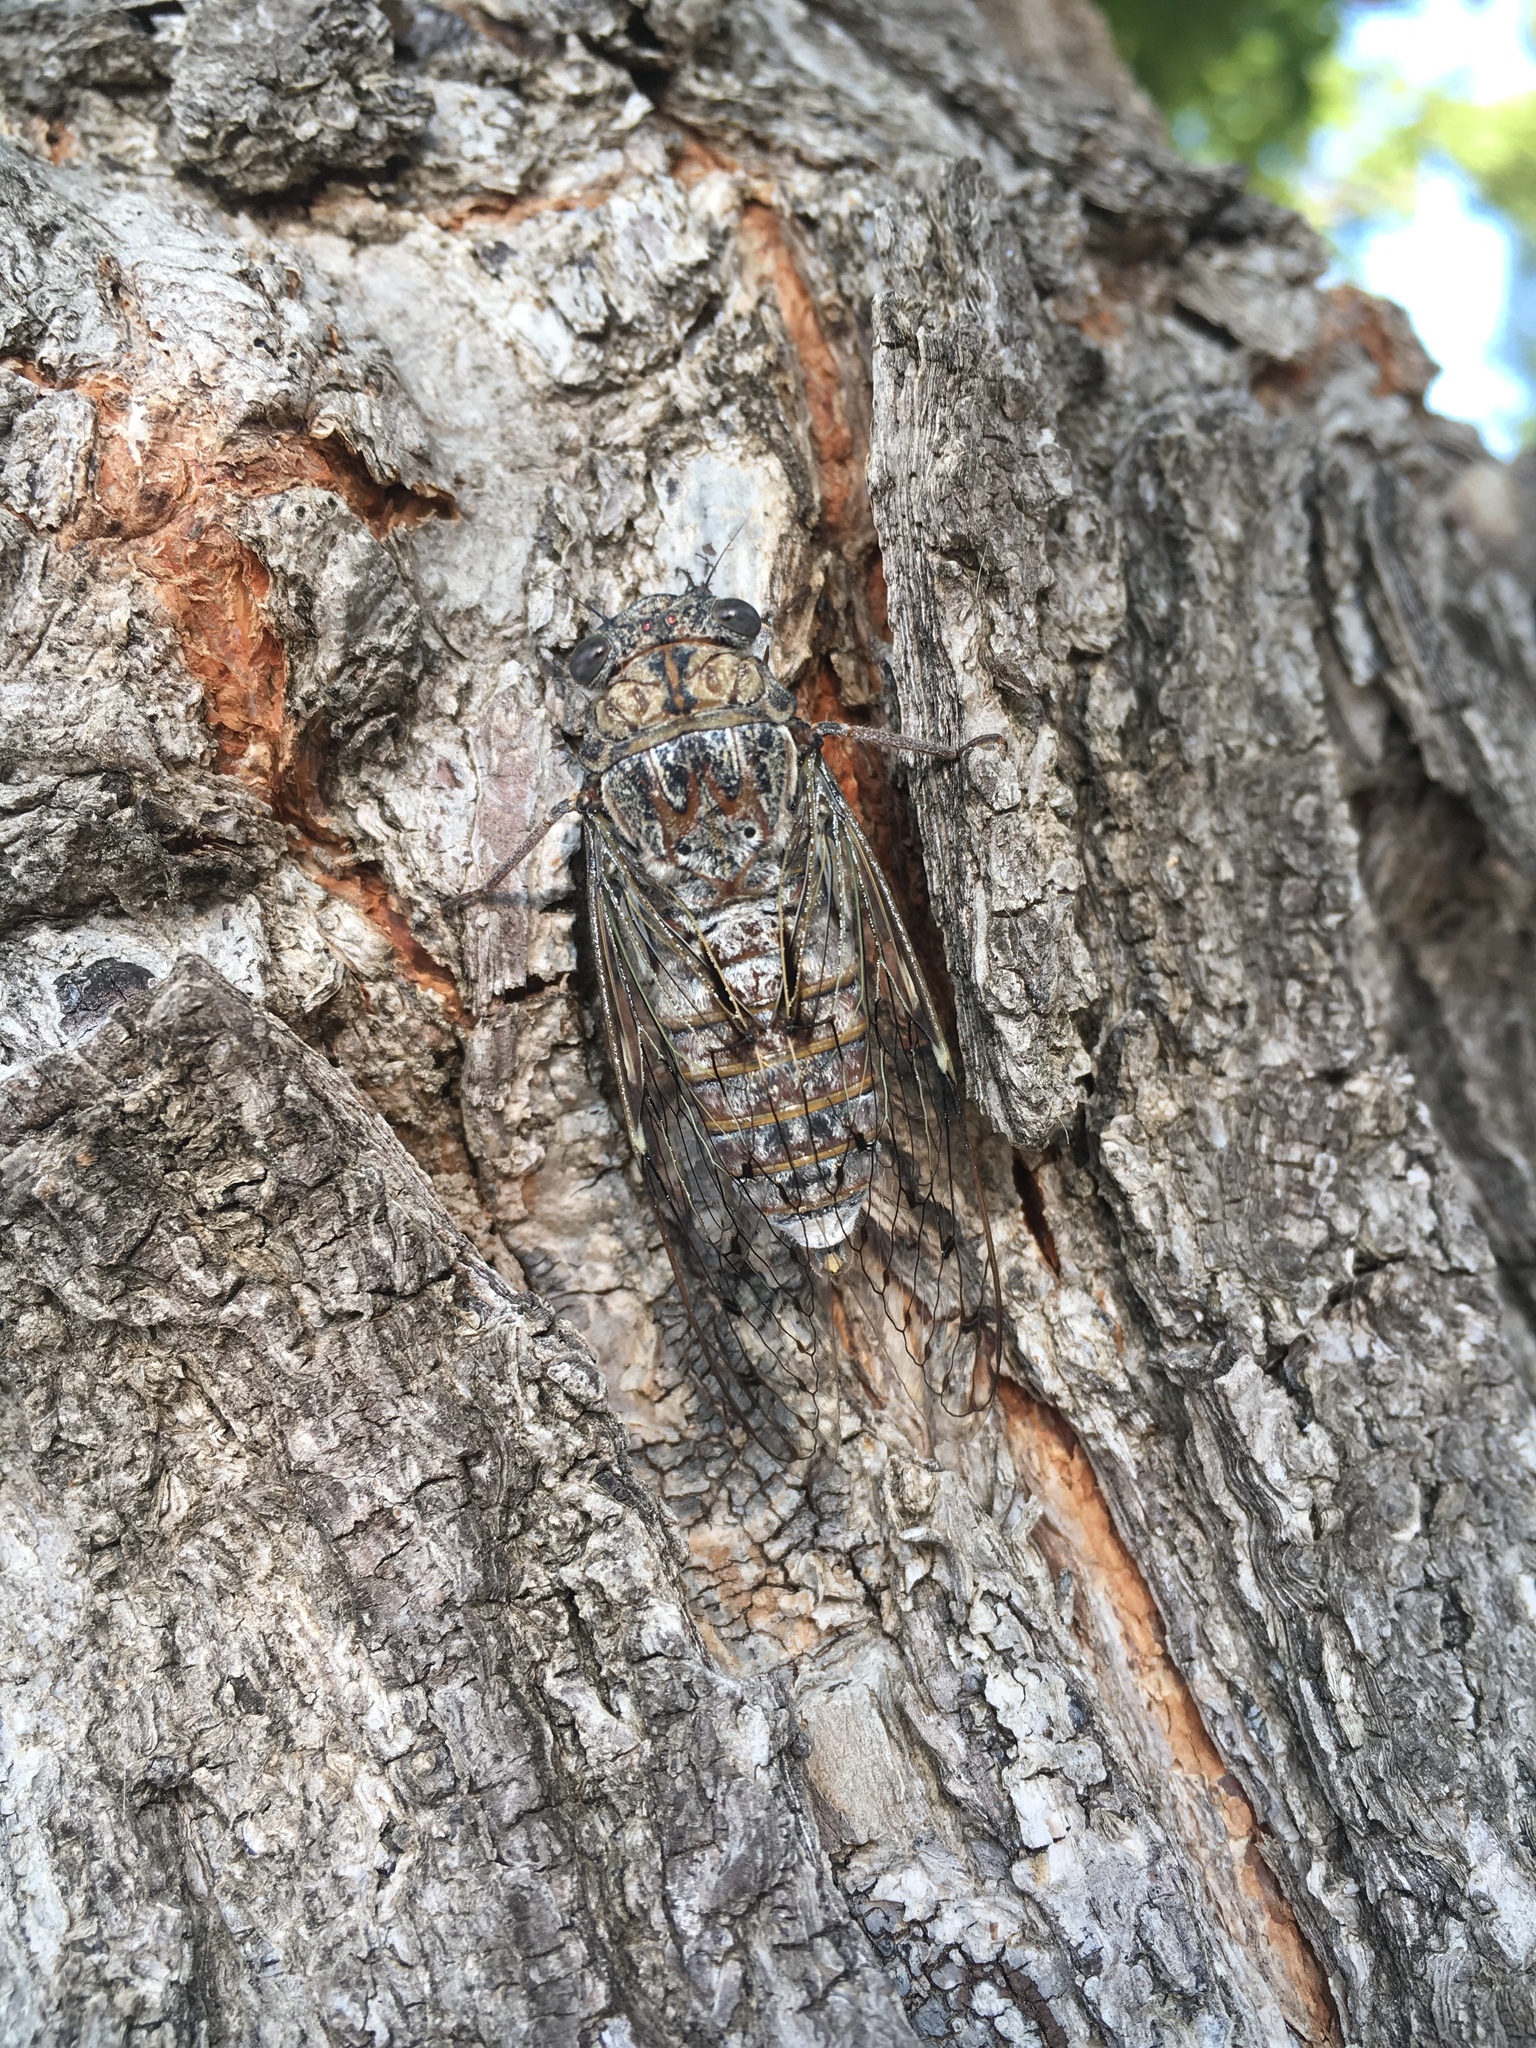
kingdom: Animalia
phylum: Arthropoda
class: Insecta
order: Hemiptera
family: Cicadidae
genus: Cicada
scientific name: Cicada orni
